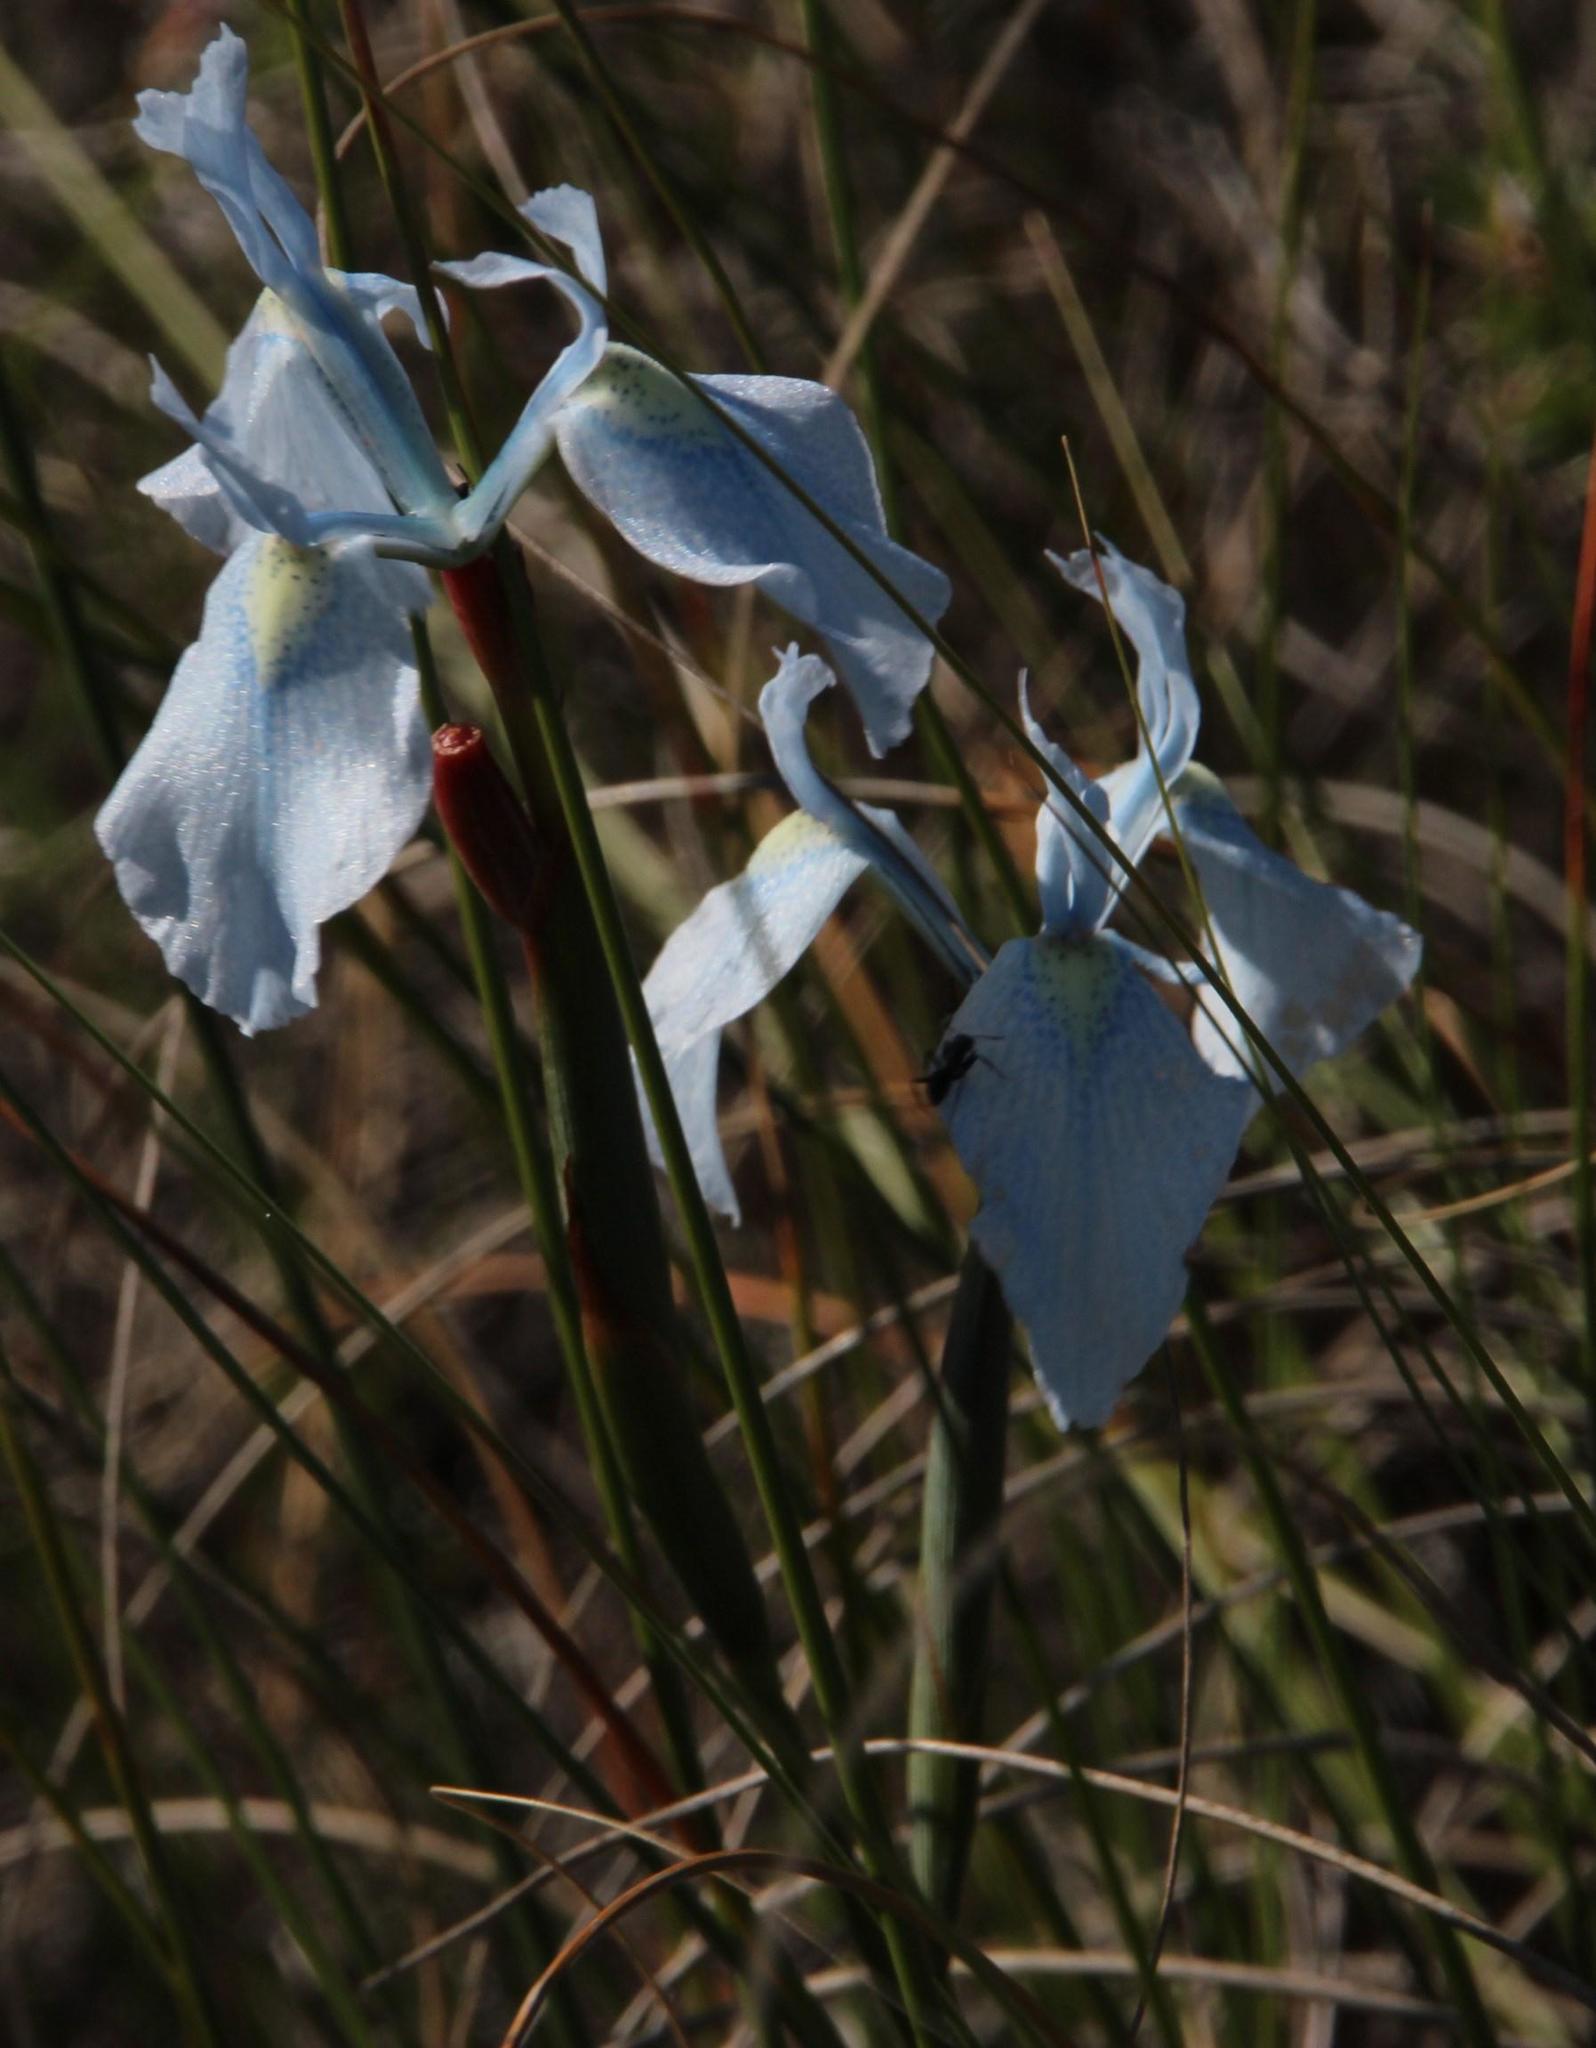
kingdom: Plantae
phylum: Tracheophyta
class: Liliopsida
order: Asparagales
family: Iridaceae
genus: Moraea
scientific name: Moraea tripetala
